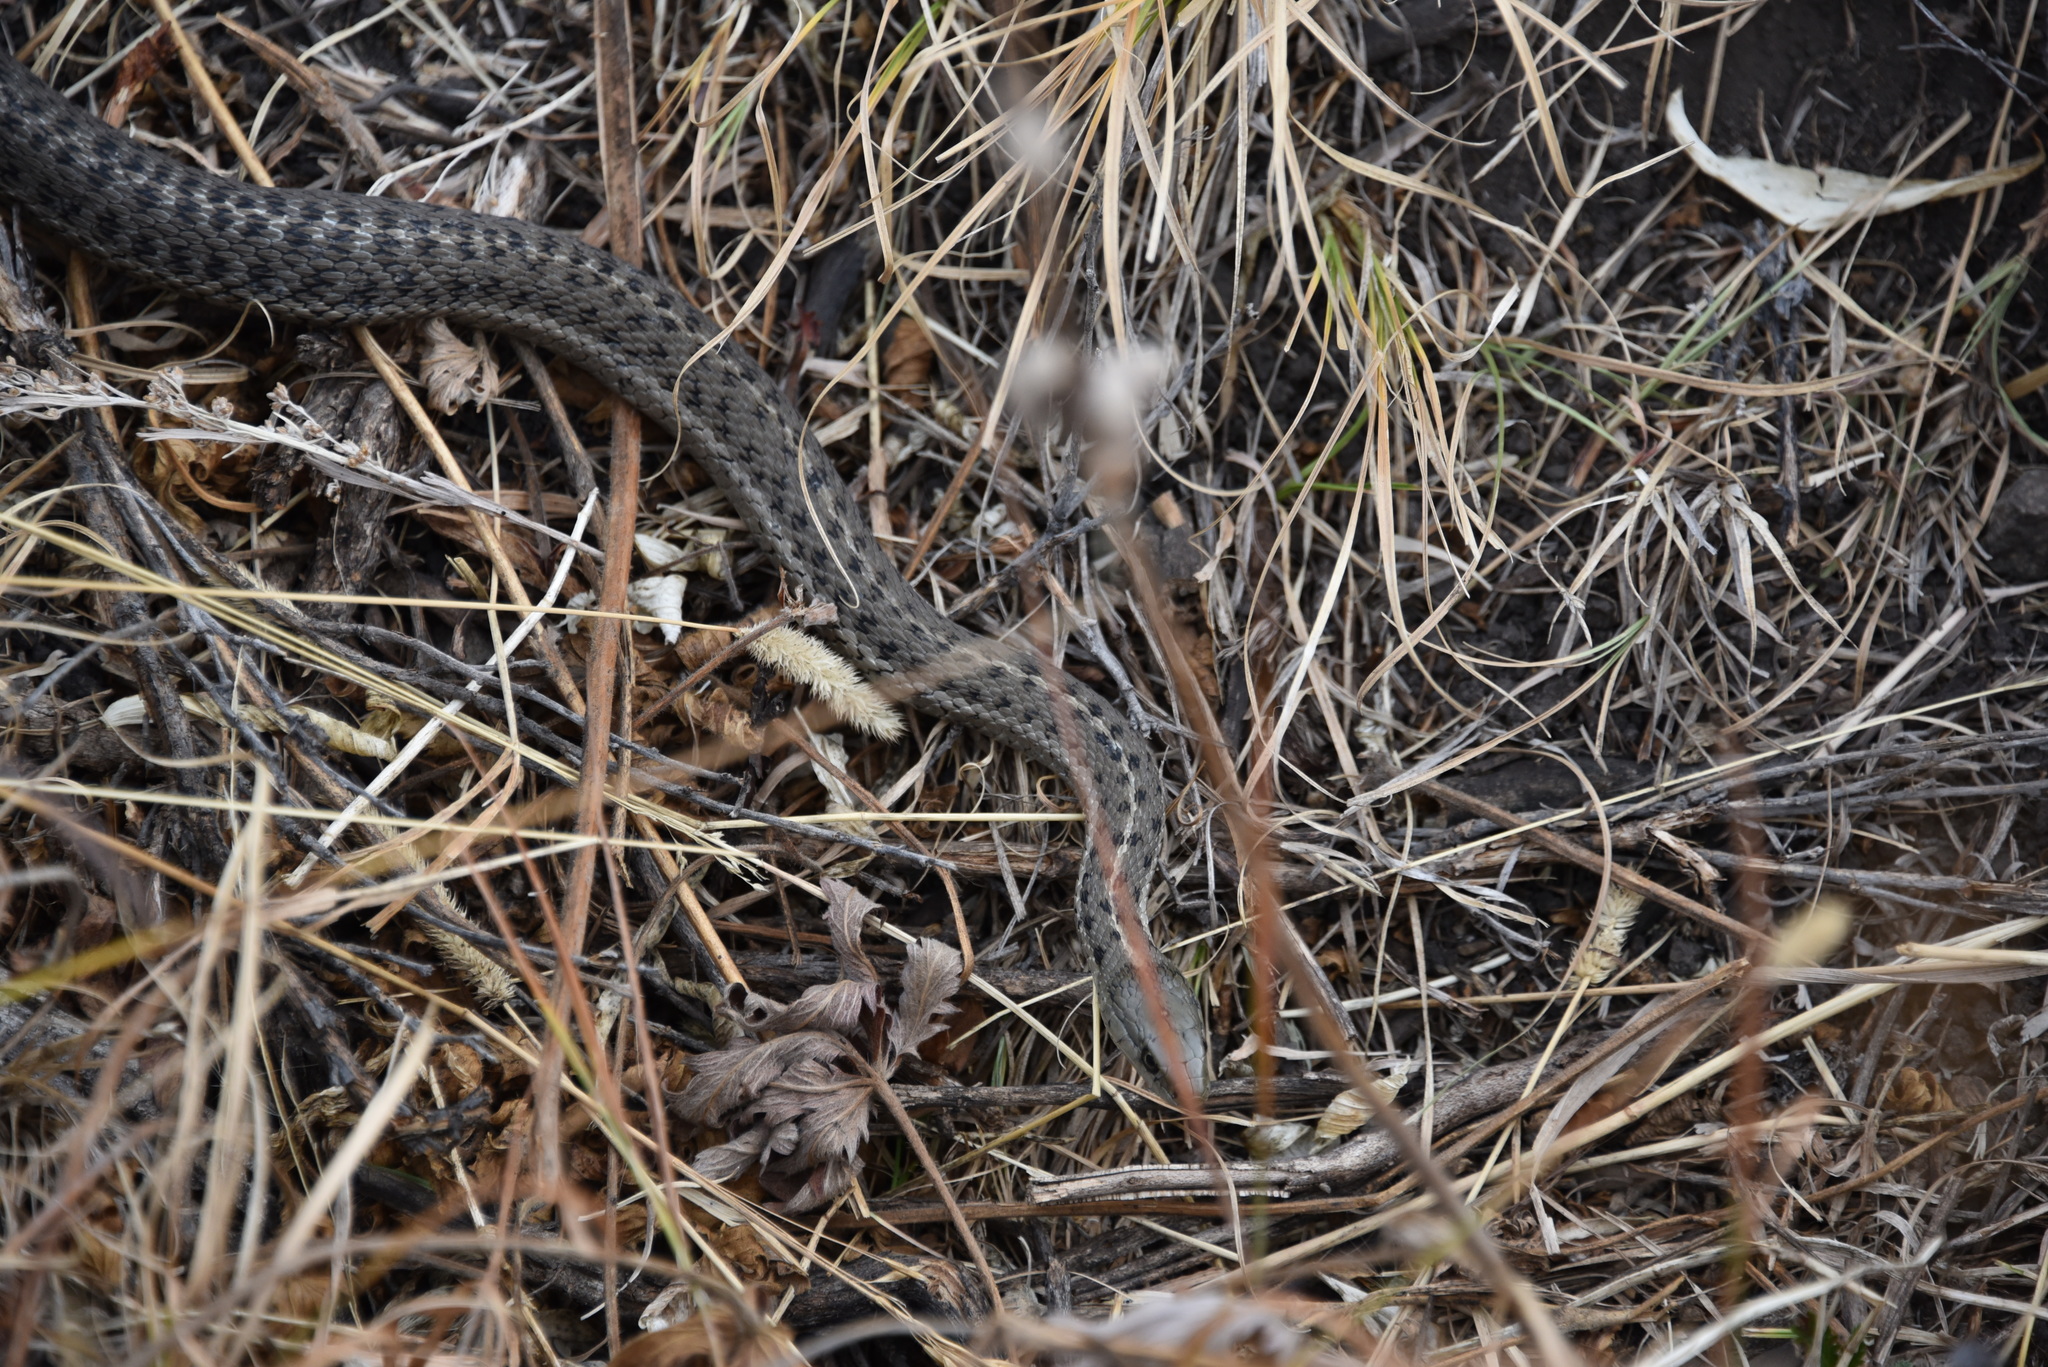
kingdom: Animalia
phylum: Chordata
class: Squamata
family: Colubridae
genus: Thamnophis
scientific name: Thamnophis elegans
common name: Western terrestrial garter snake
